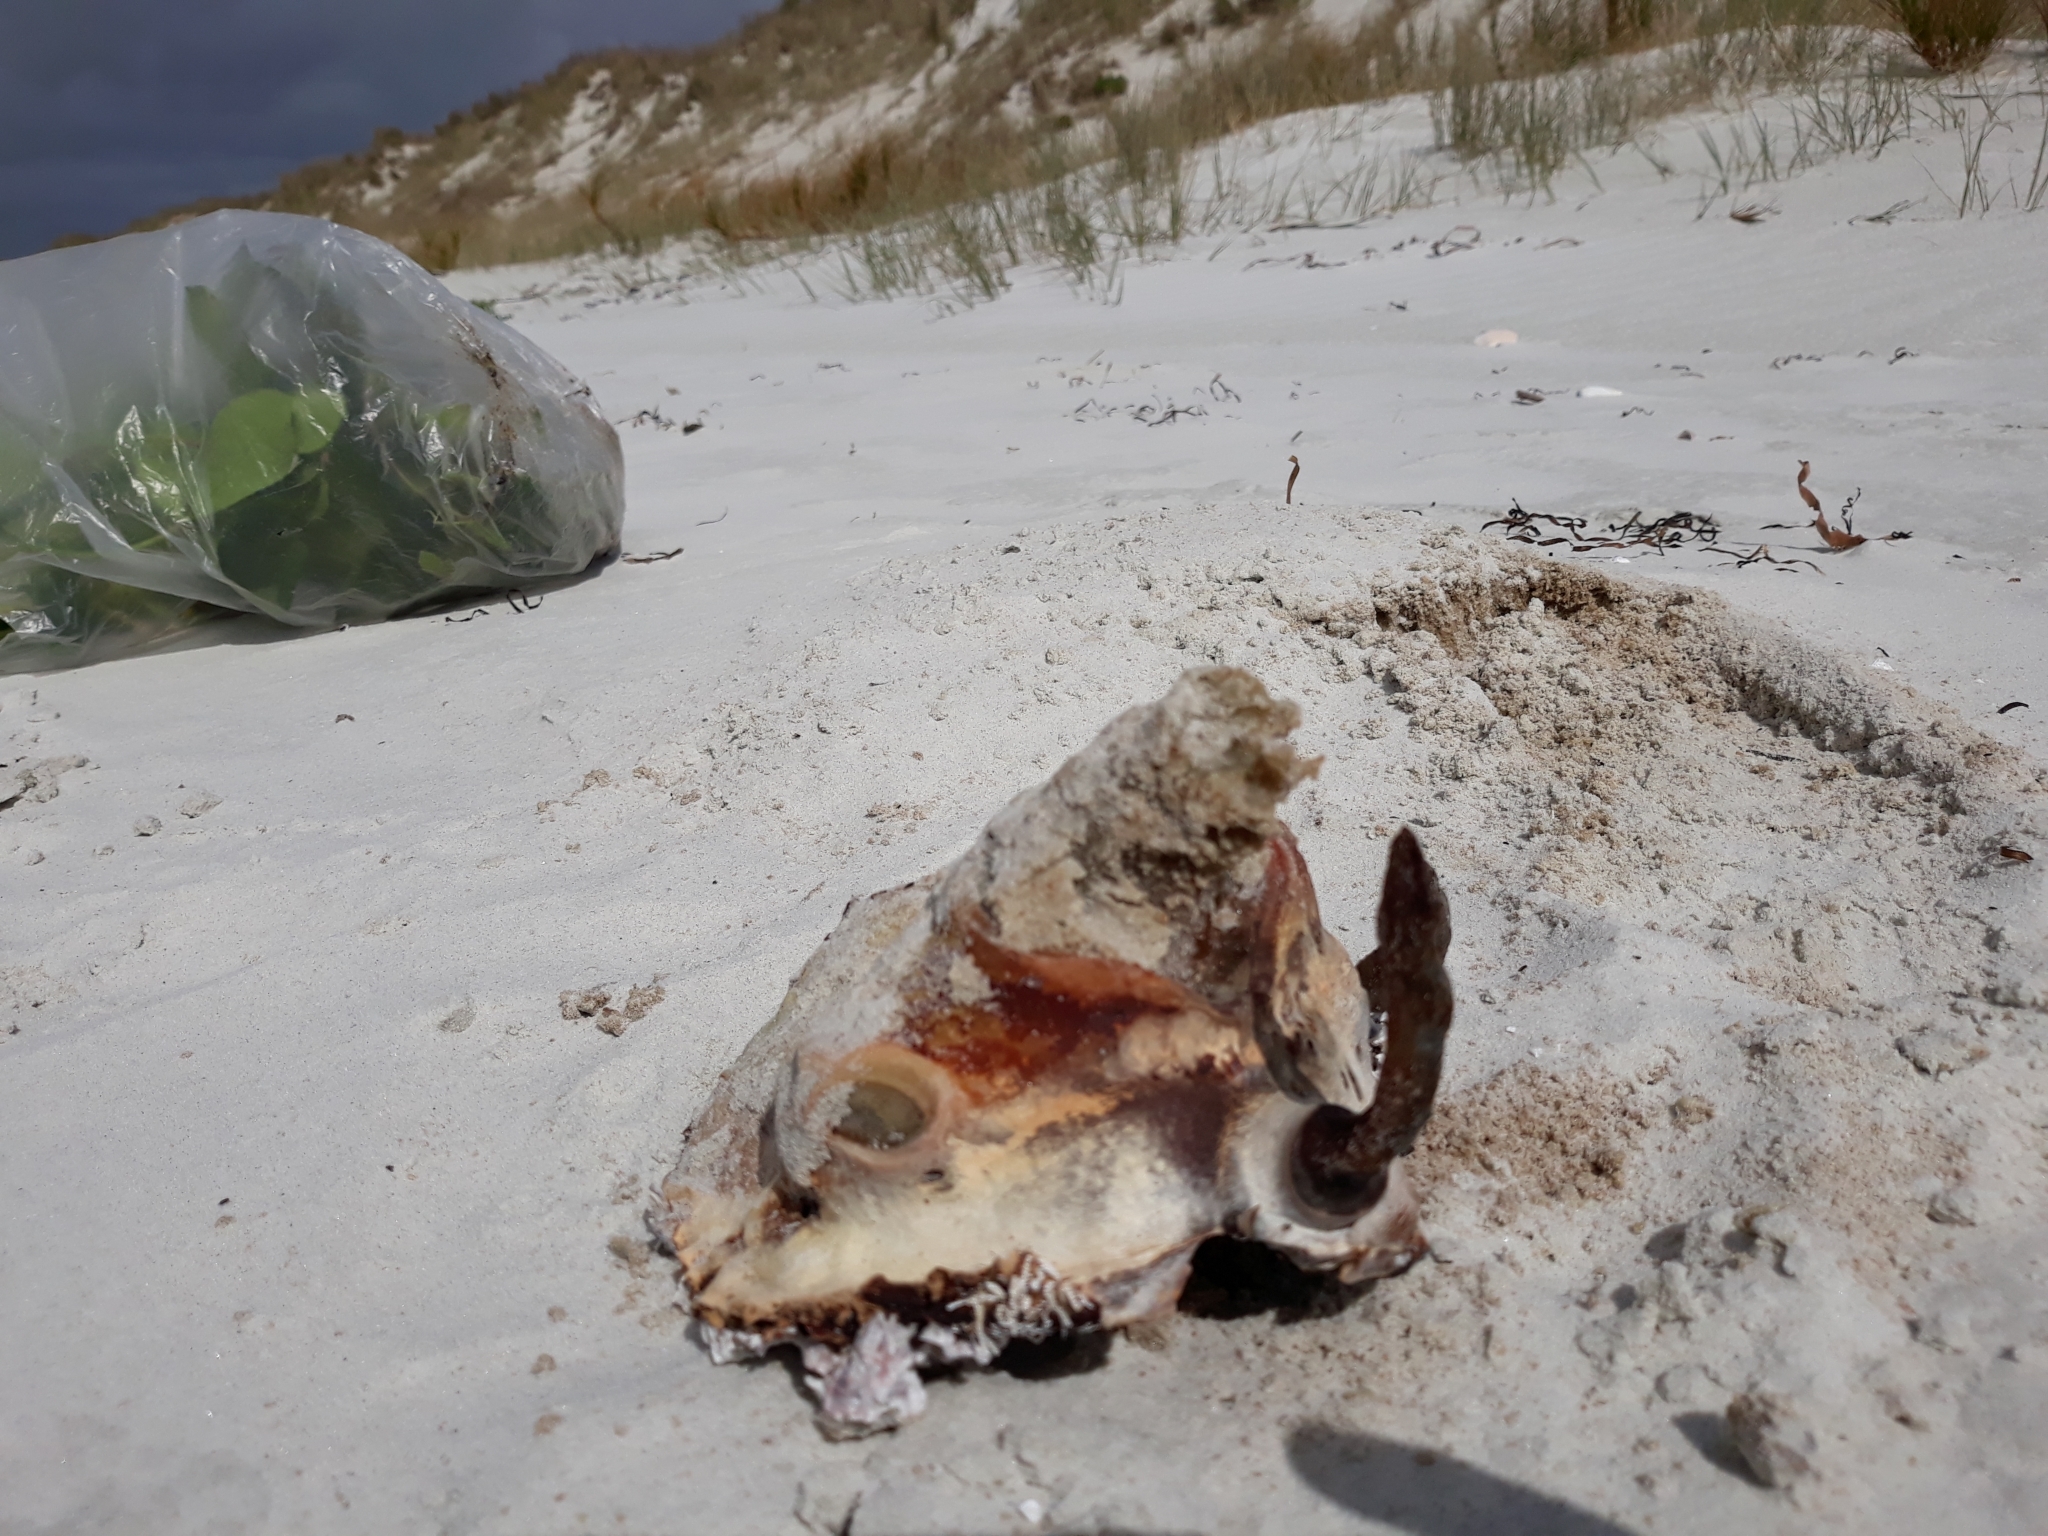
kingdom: Chromista
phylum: Ochrophyta
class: Phaeophyceae
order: Fucales
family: Durvillaeaceae
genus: Durvillaea
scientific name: Durvillaea antarctica
